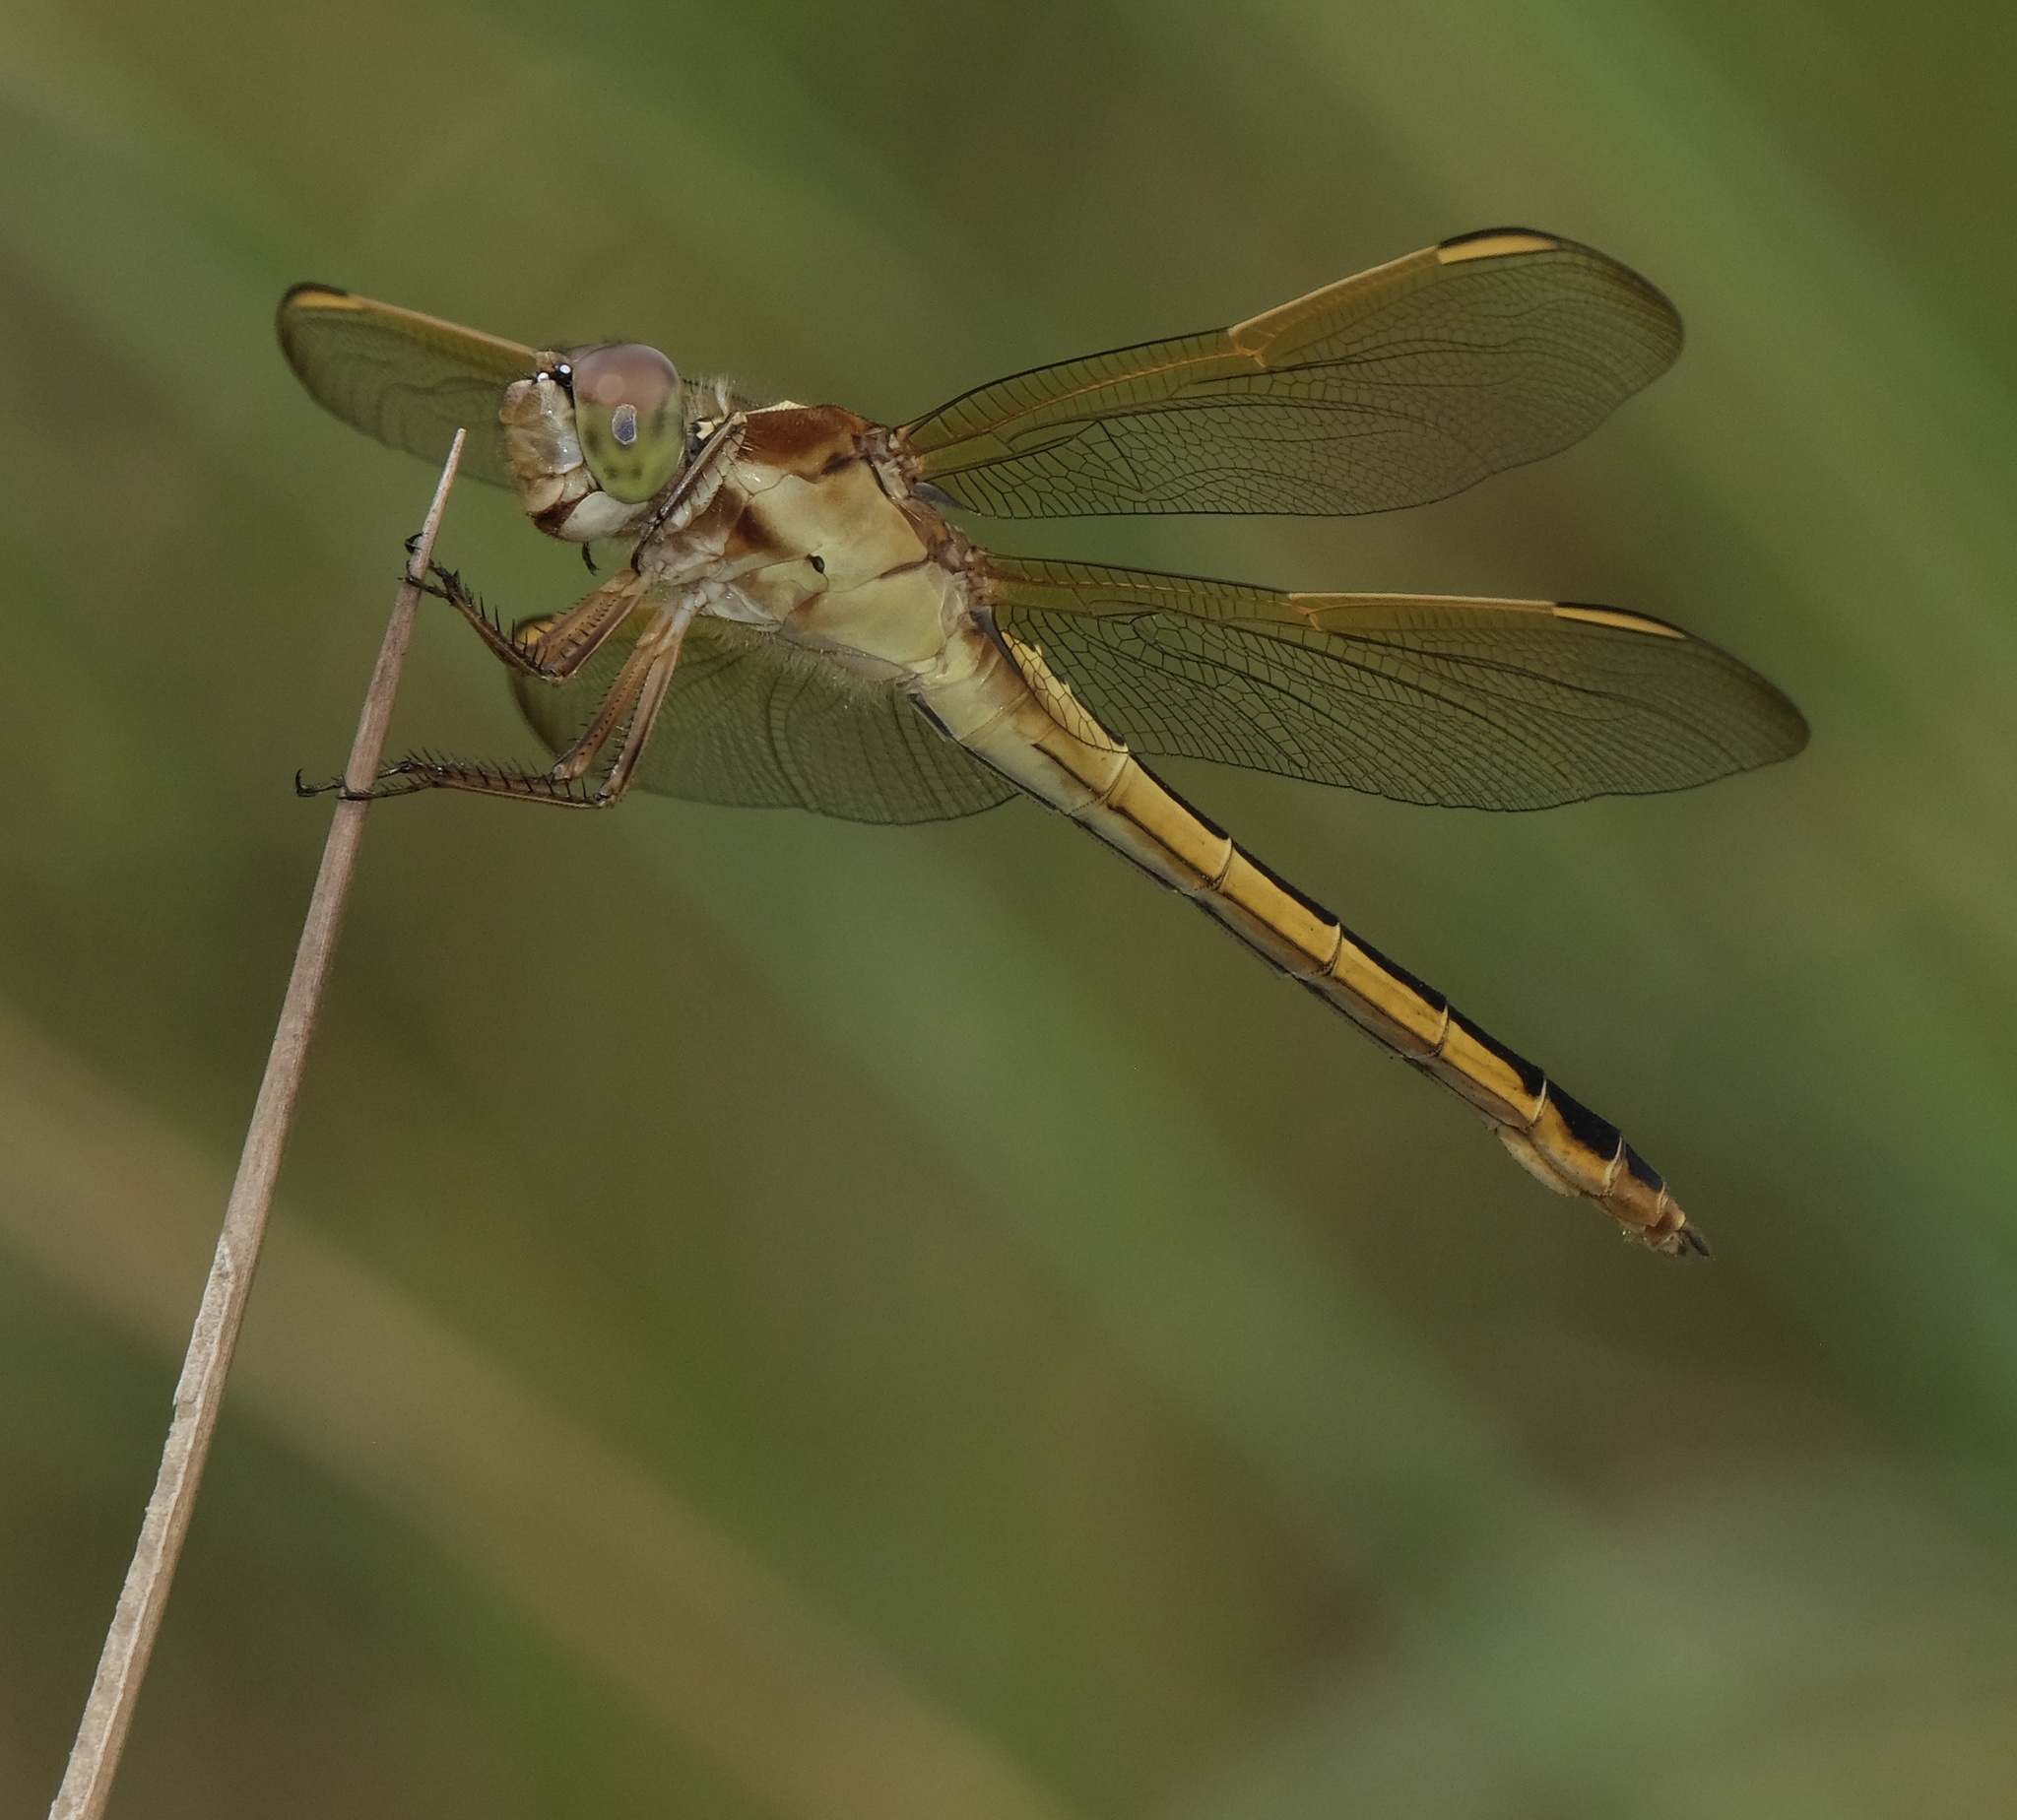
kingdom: Animalia
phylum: Arthropoda
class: Insecta
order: Odonata
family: Libellulidae
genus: Libellula
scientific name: Libellula needhami
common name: Needham's skimmer
